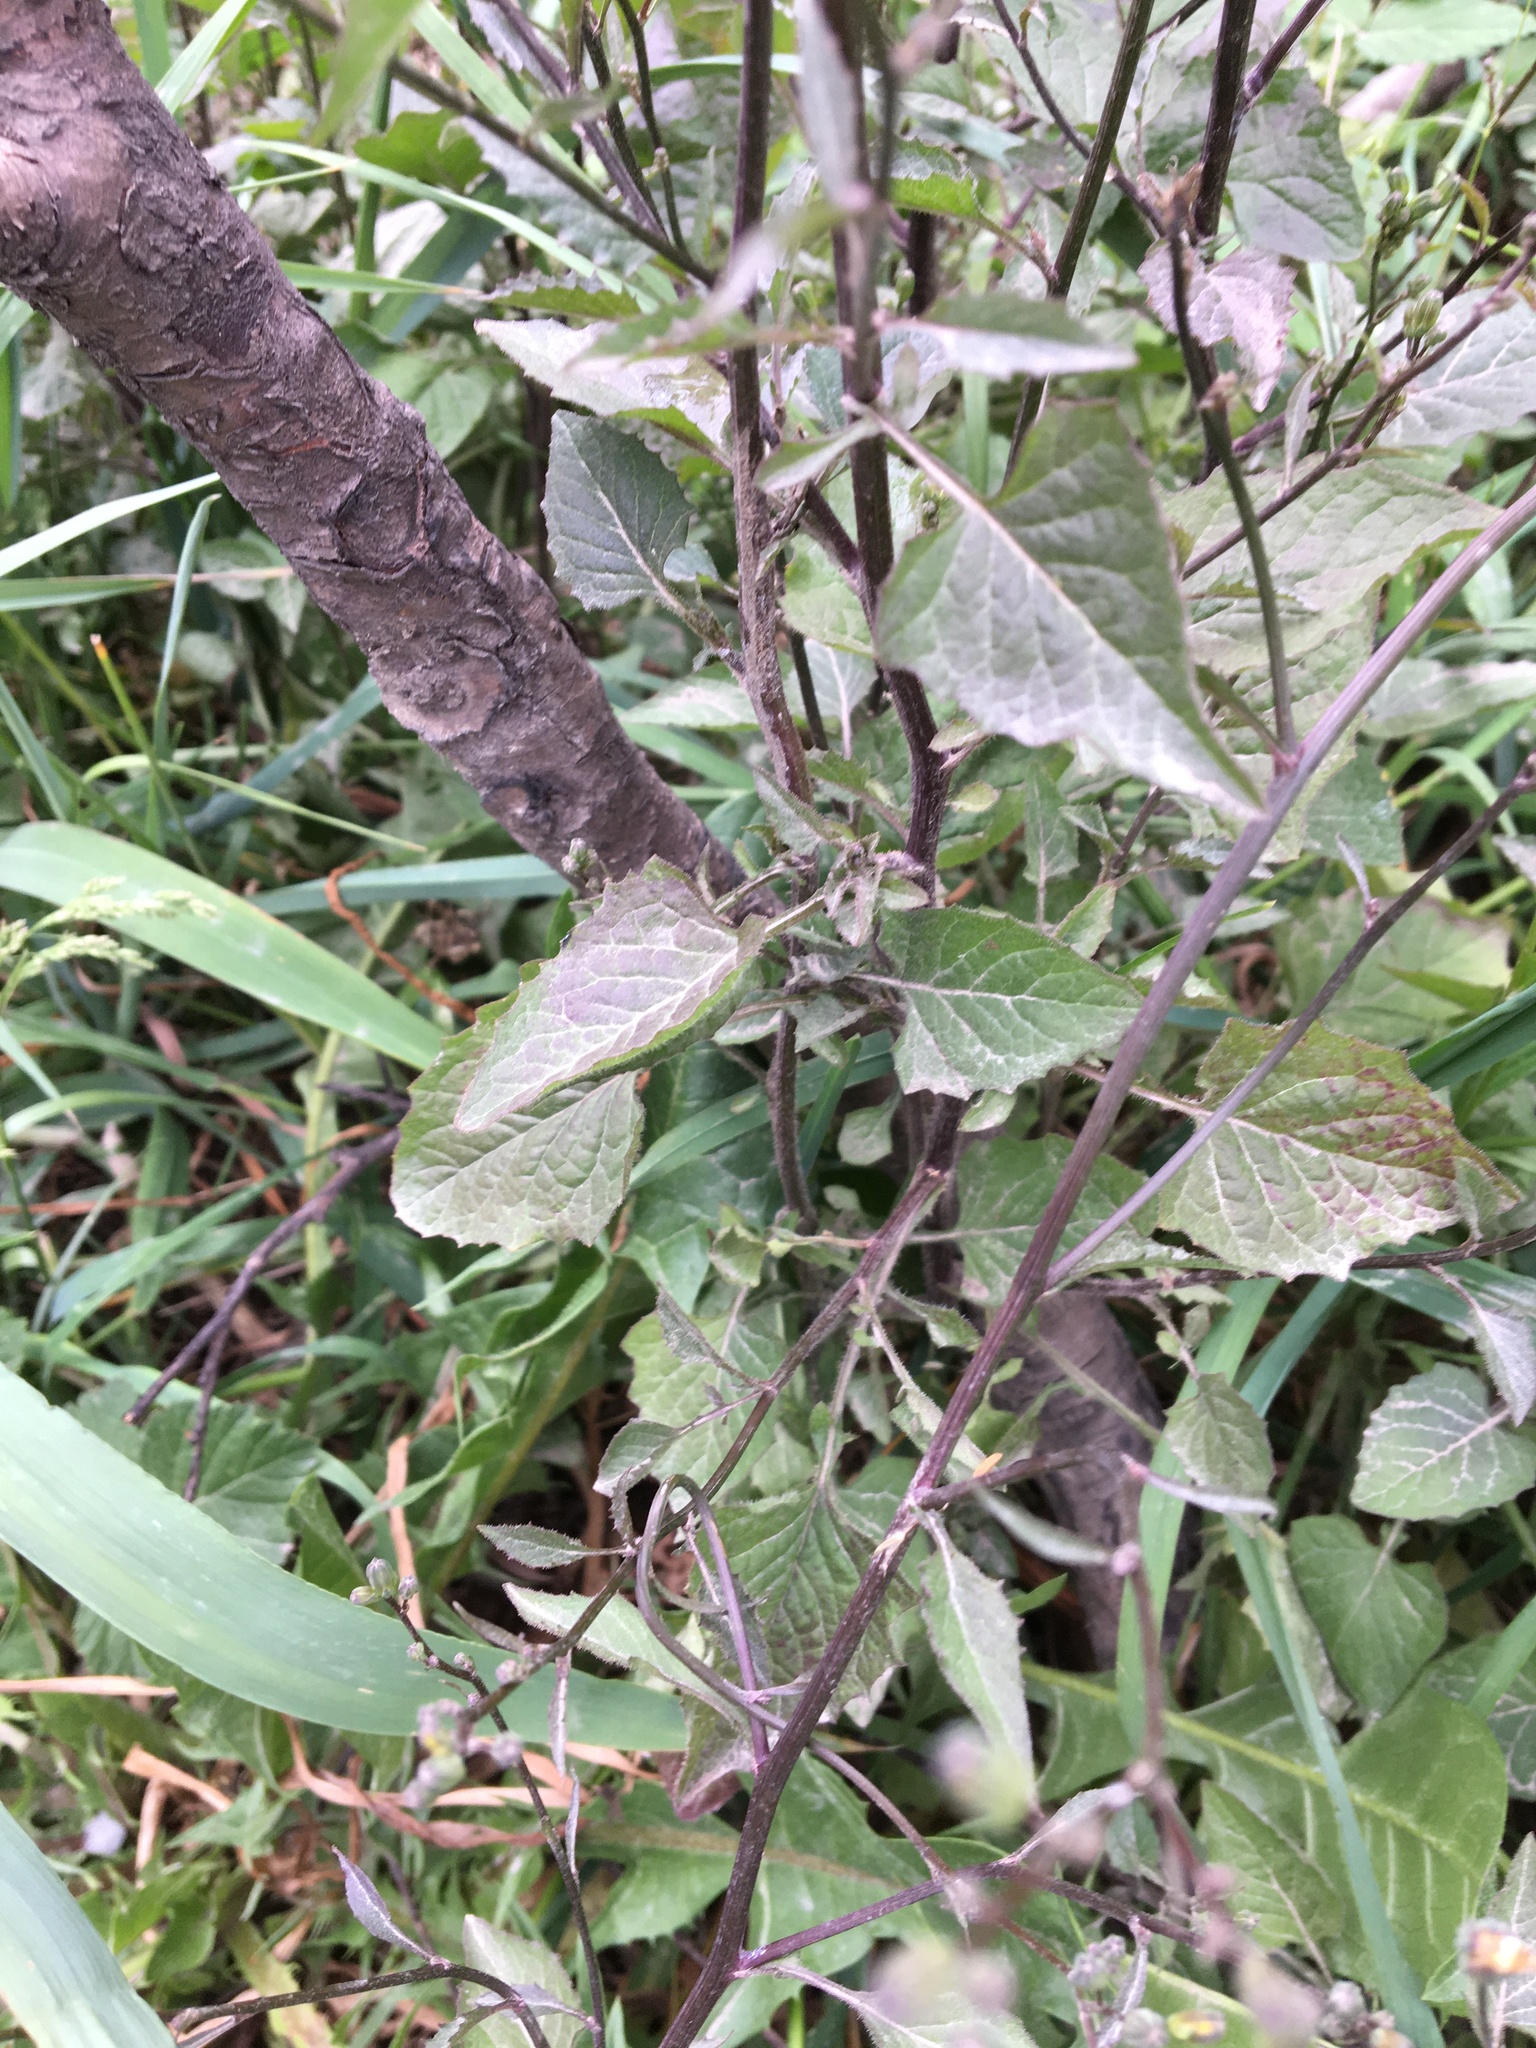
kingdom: Plantae
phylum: Tracheophyta
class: Magnoliopsida
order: Asterales
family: Asteraceae
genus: Lapsana
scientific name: Lapsana communis
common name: Nipplewort
